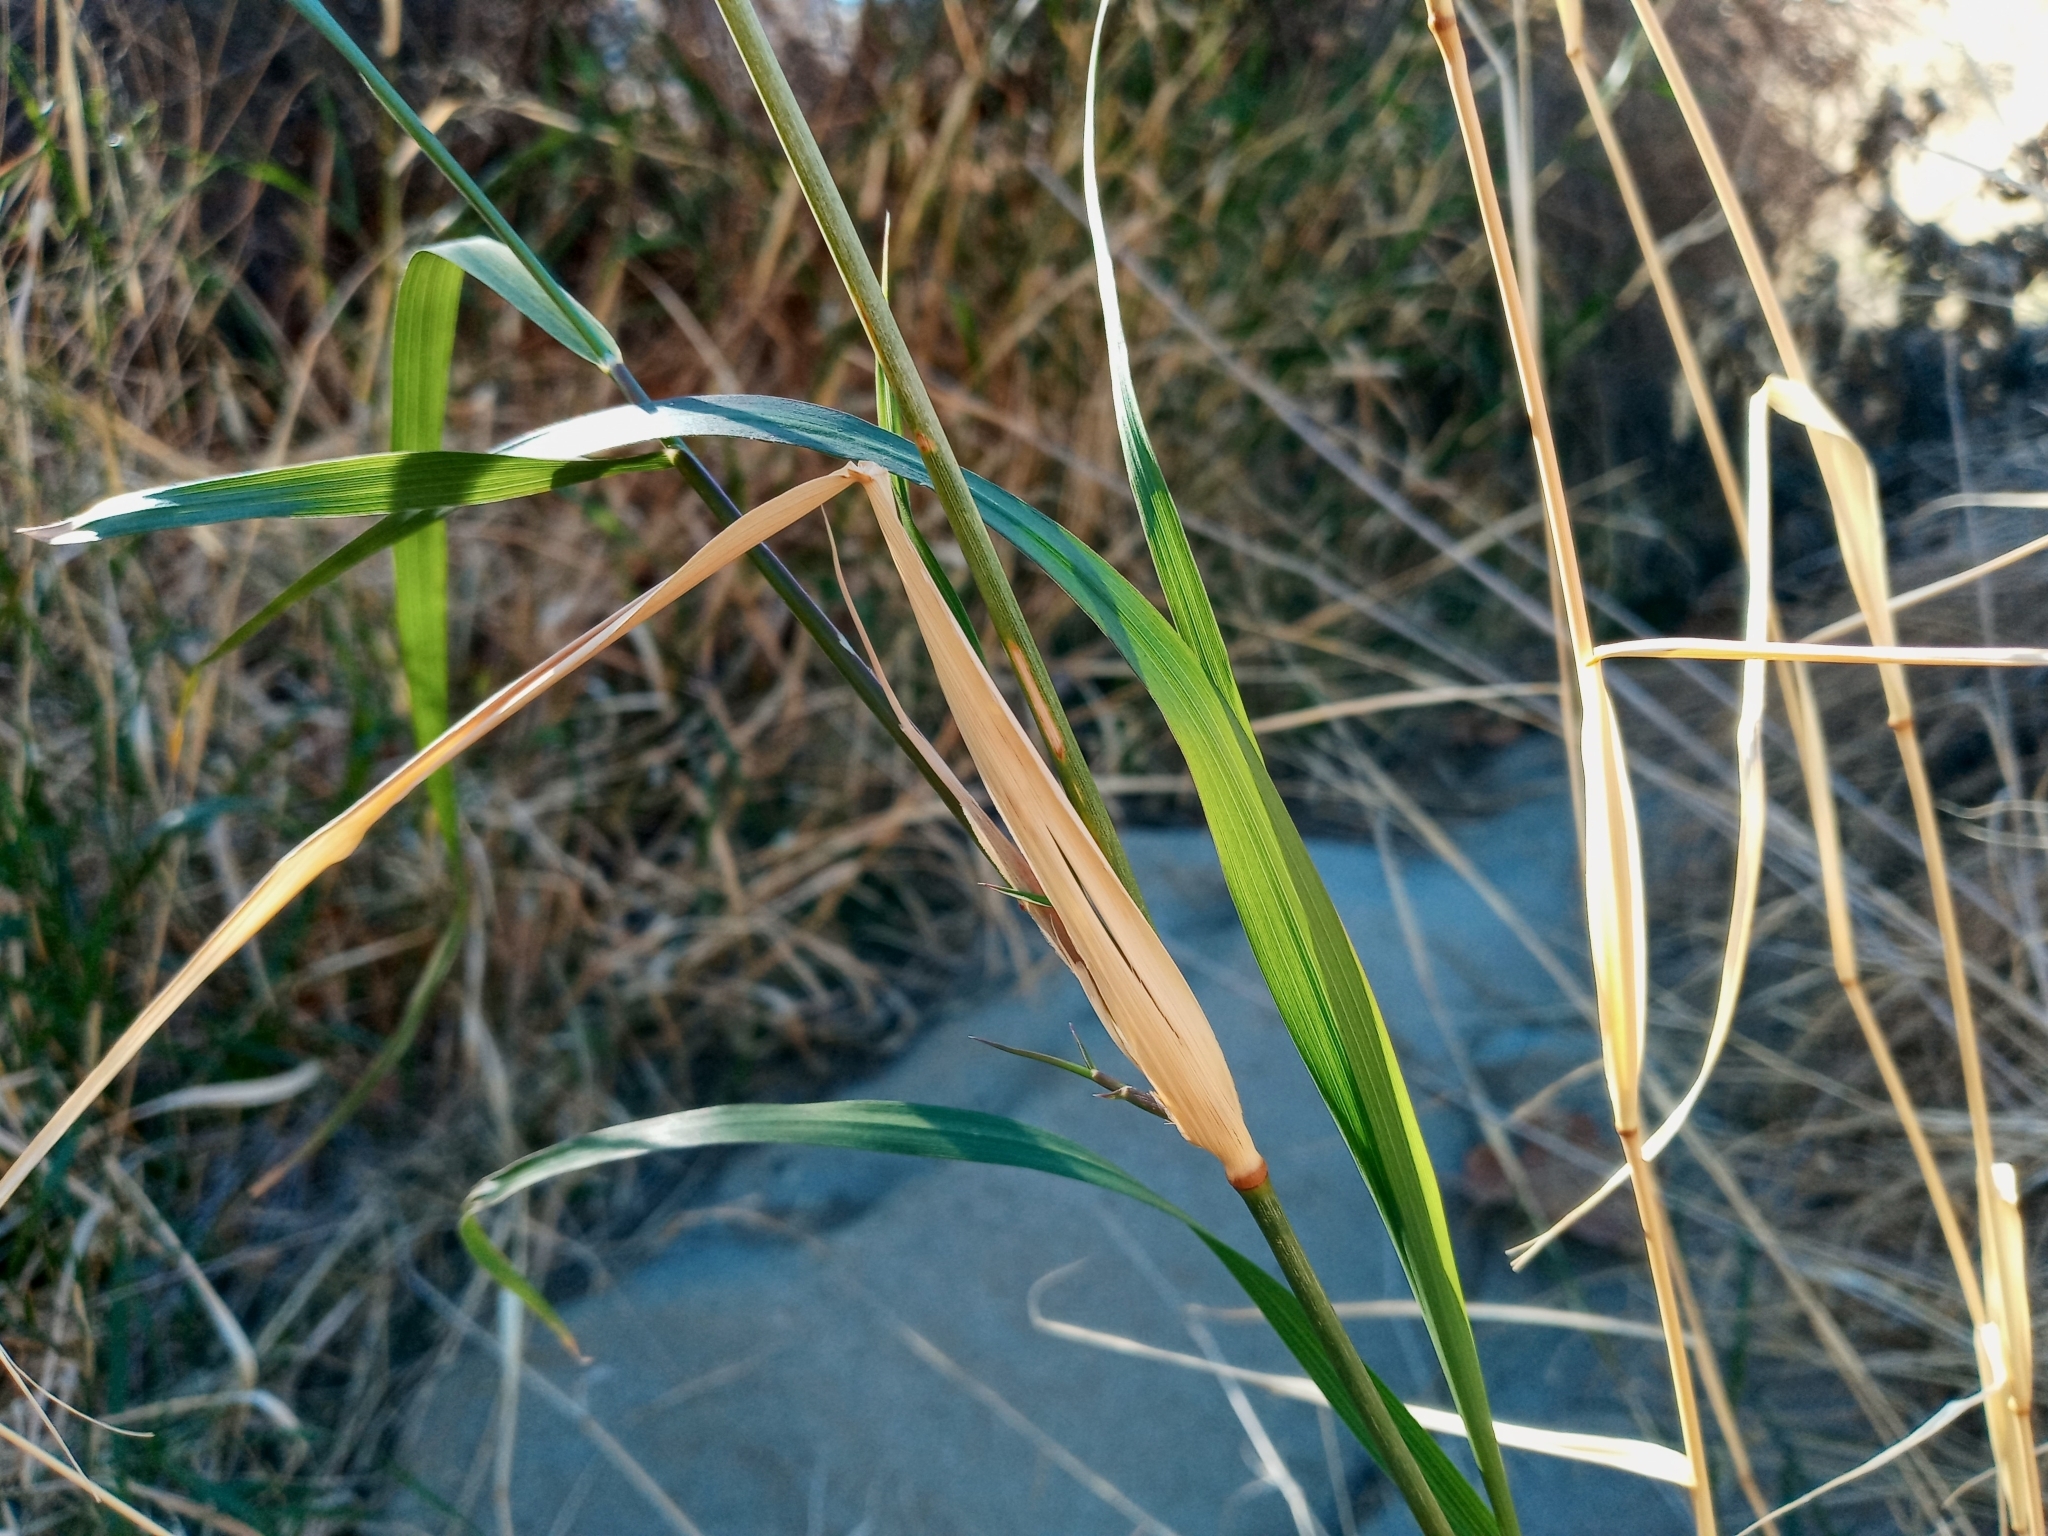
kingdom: Plantae
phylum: Tracheophyta
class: Liliopsida
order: Poales
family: Poaceae
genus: Oloptum
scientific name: Oloptum miliaceum
